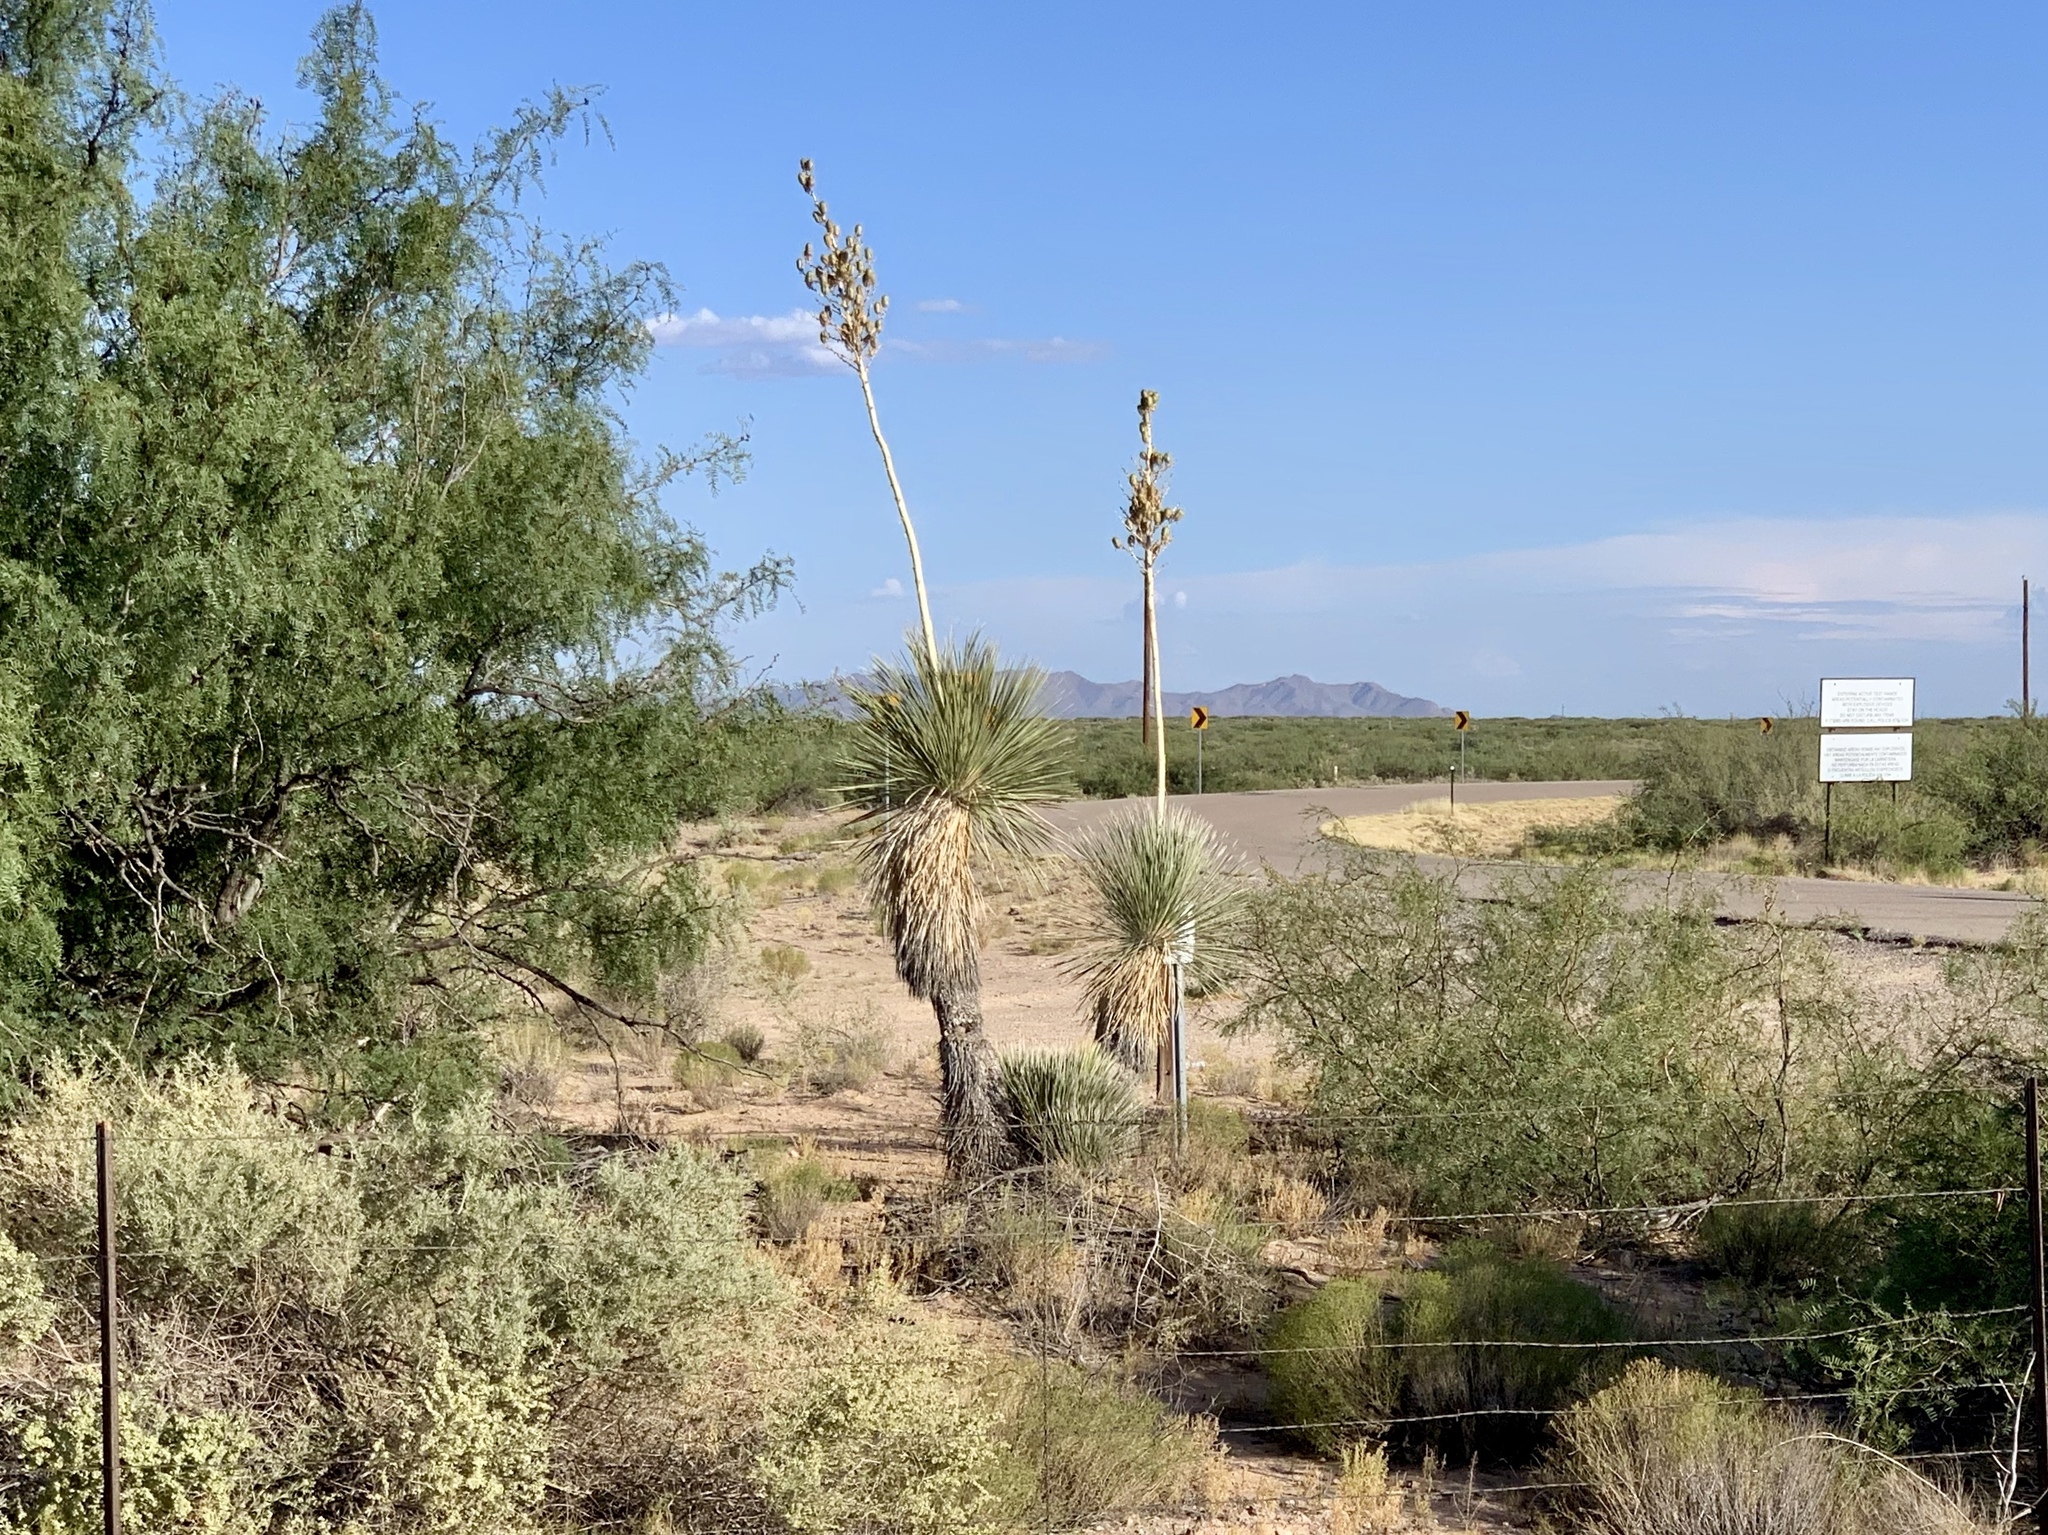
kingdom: Plantae
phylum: Tracheophyta
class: Liliopsida
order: Asparagales
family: Asparagaceae
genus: Yucca
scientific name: Yucca elata
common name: Palmella
